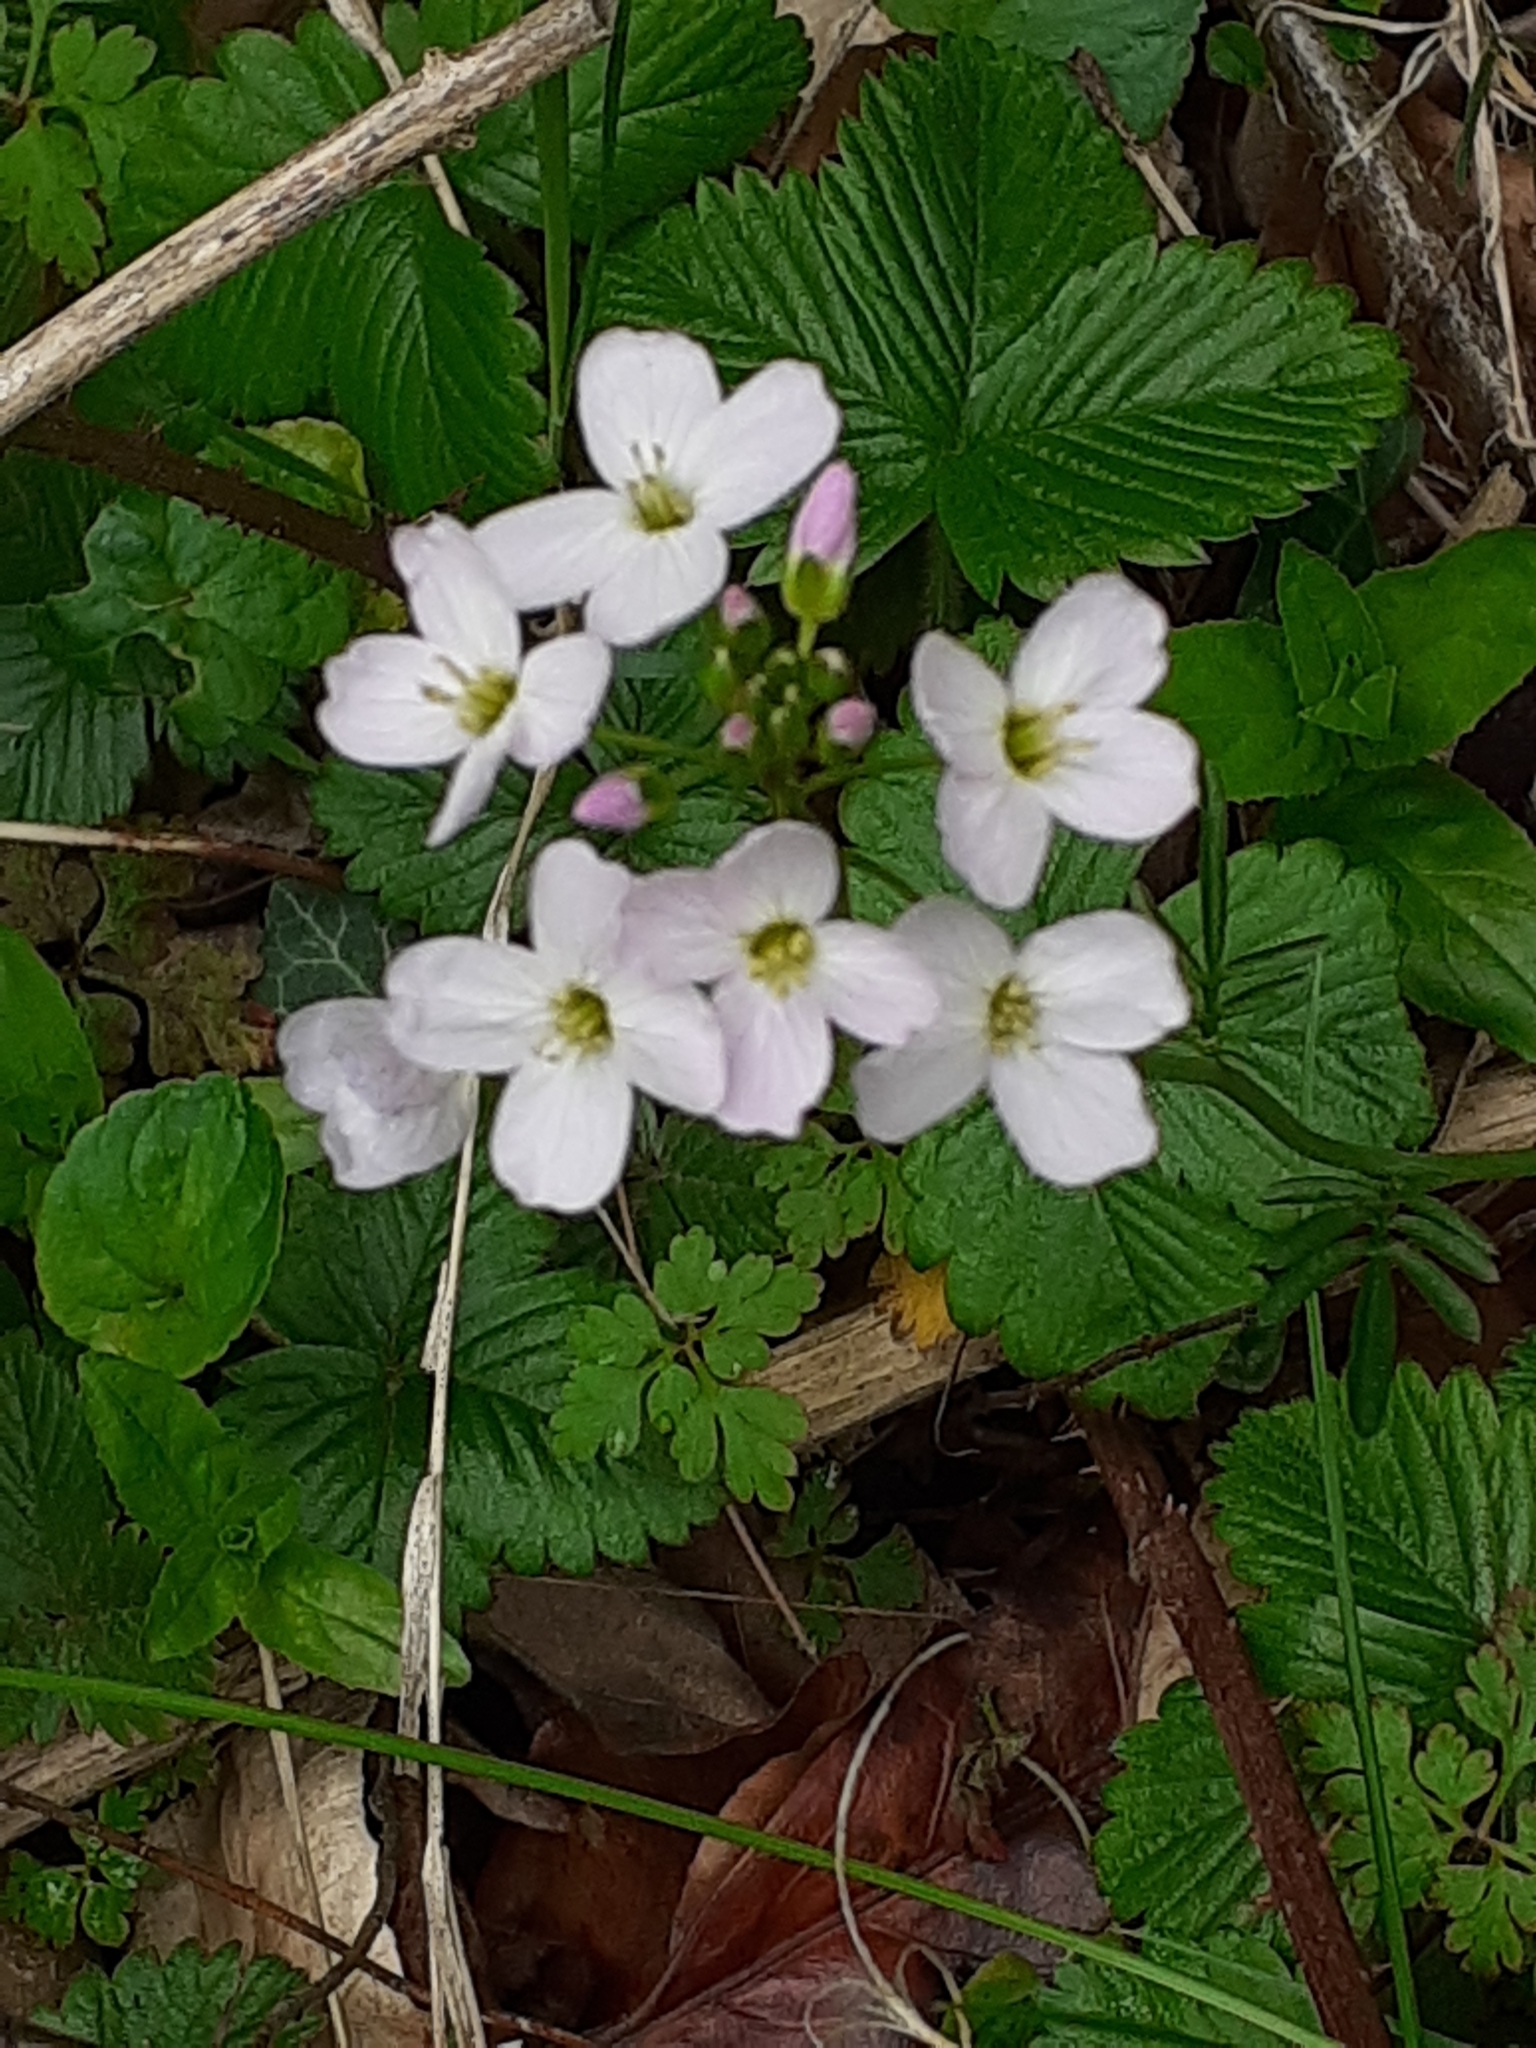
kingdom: Plantae
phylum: Tracheophyta
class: Magnoliopsida
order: Brassicales
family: Brassicaceae
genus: Cardamine
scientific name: Cardamine pratensis
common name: Cuckoo flower
